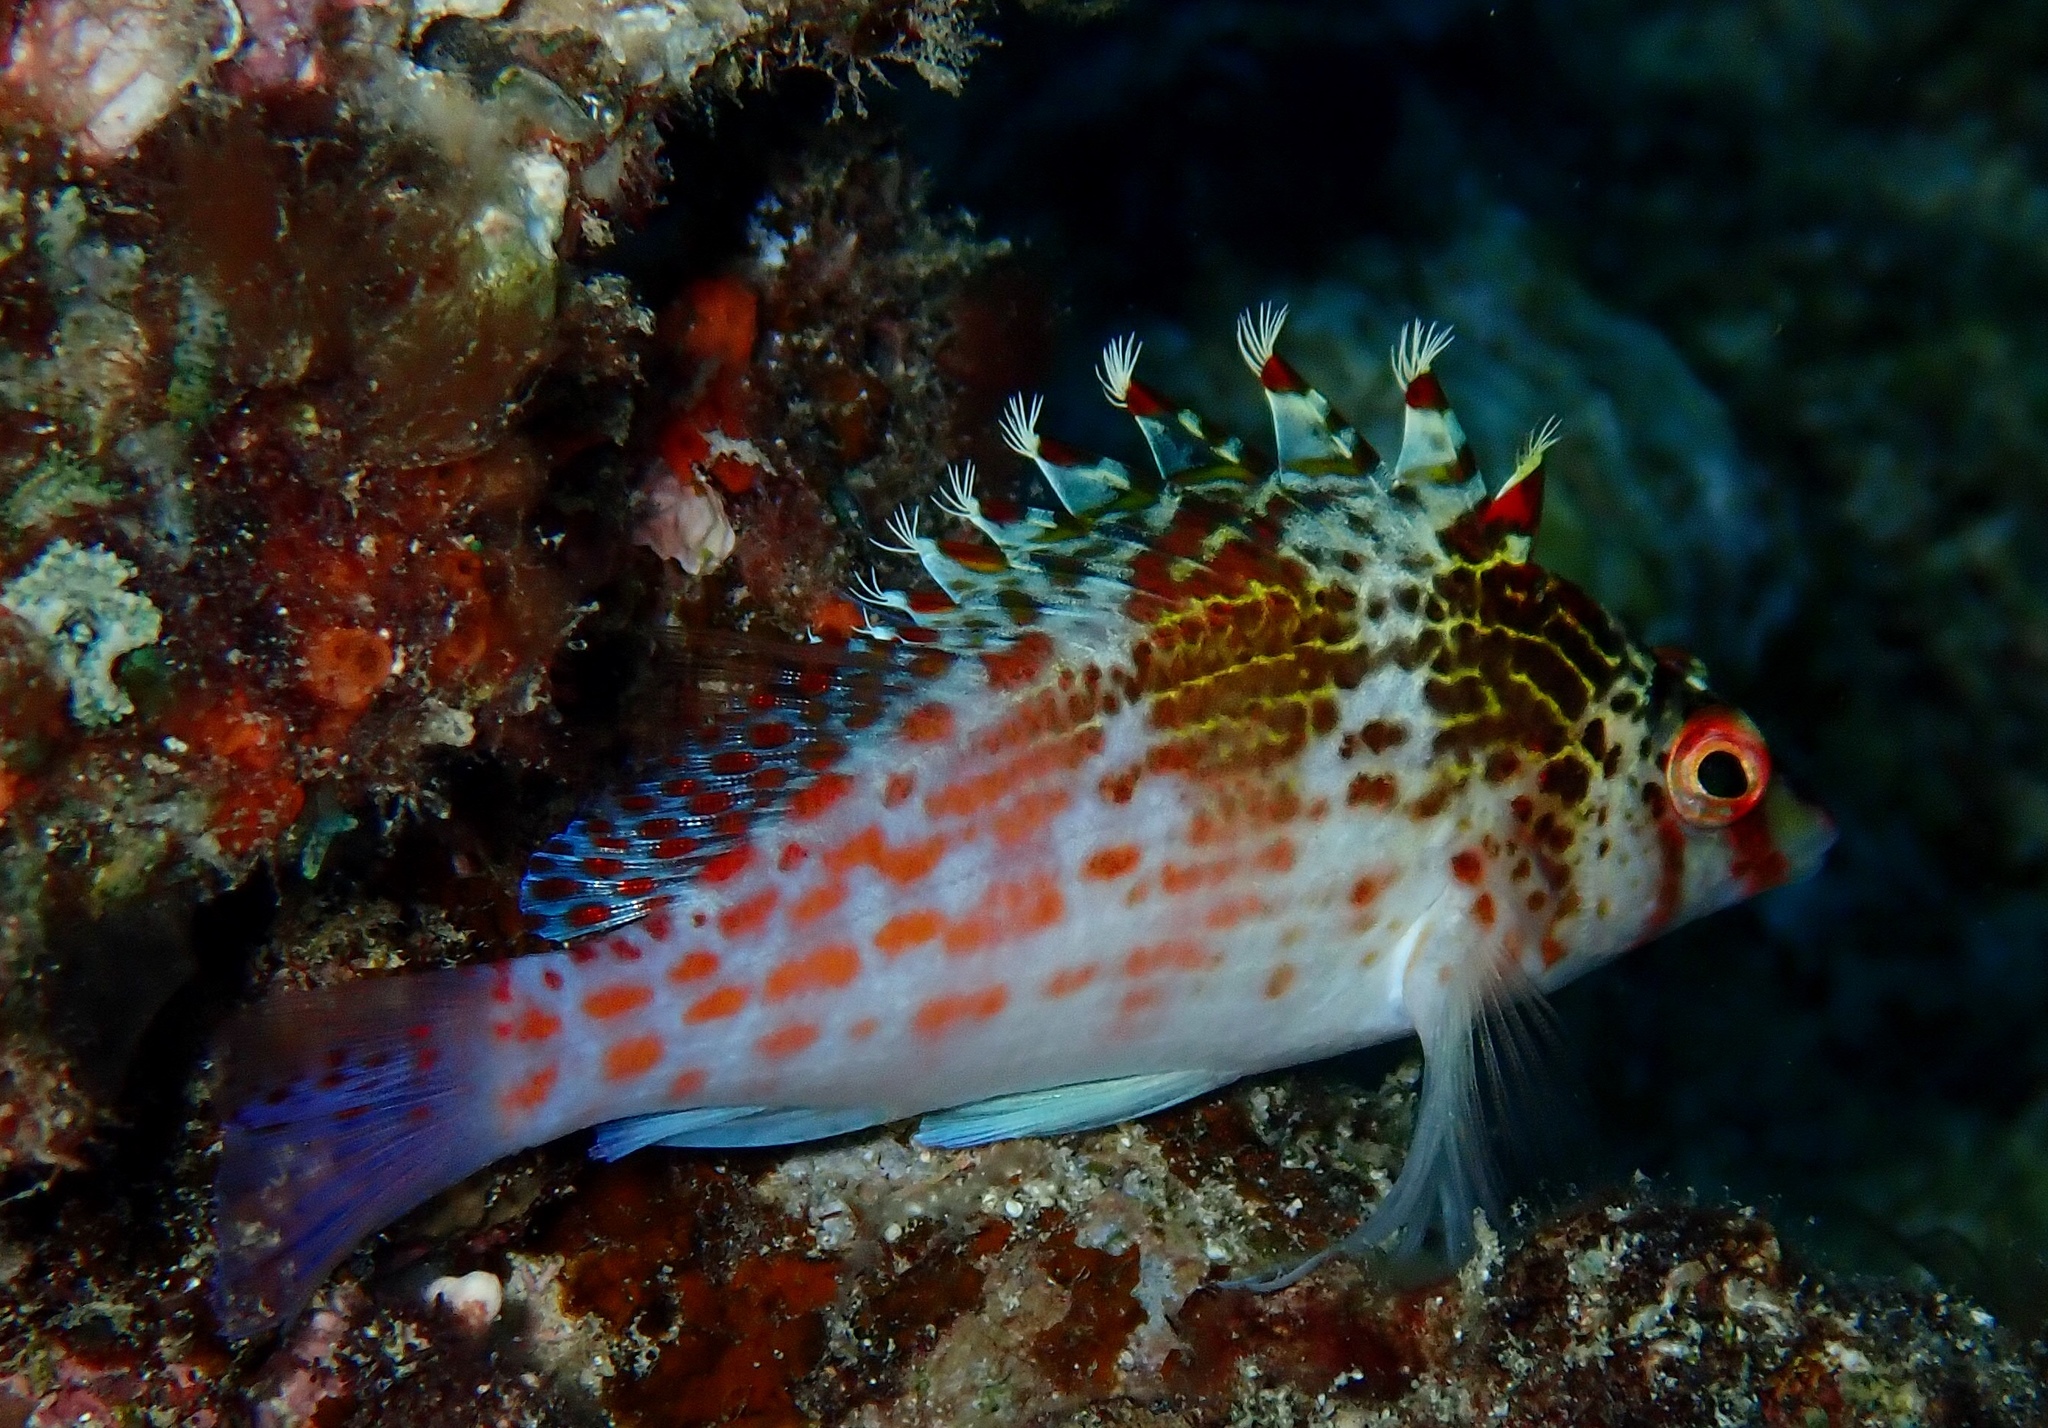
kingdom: Animalia
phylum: Chordata
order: Perciformes
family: Cirrhitidae
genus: Cirrhitichthys
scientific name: Cirrhitichthys falco
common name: Coral hawkfish
